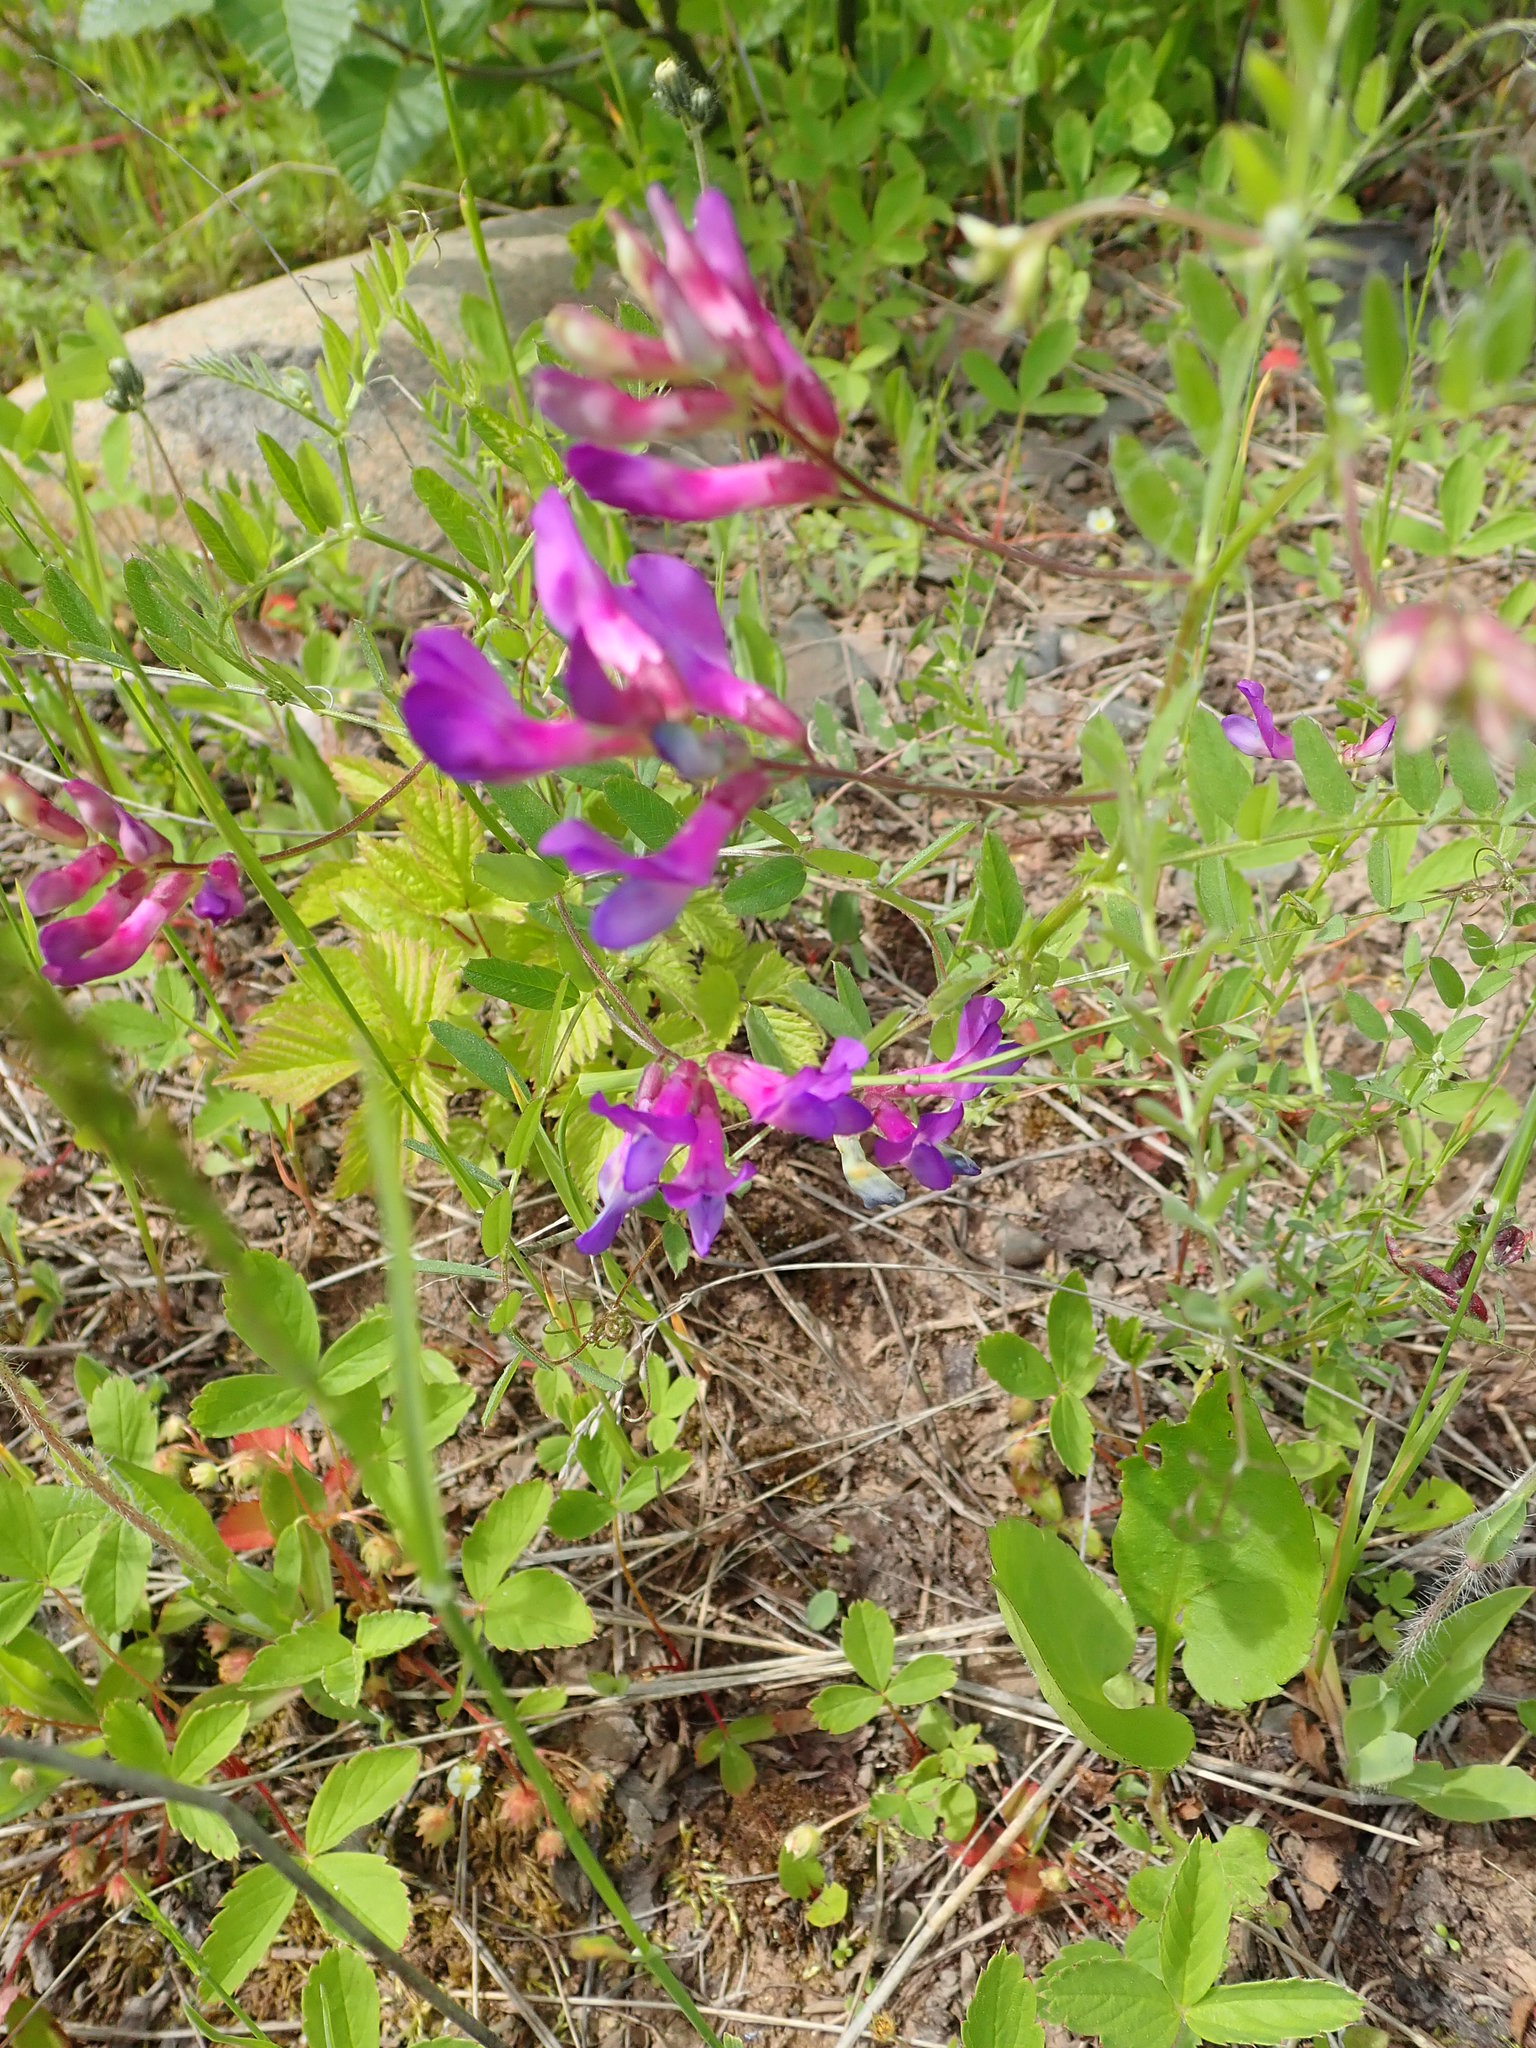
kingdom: Plantae
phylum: Tracheophyta
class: Magnoliopsida
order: Fabales
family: Fabaceae
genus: Vicia
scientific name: Vicia americana
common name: American vetch
